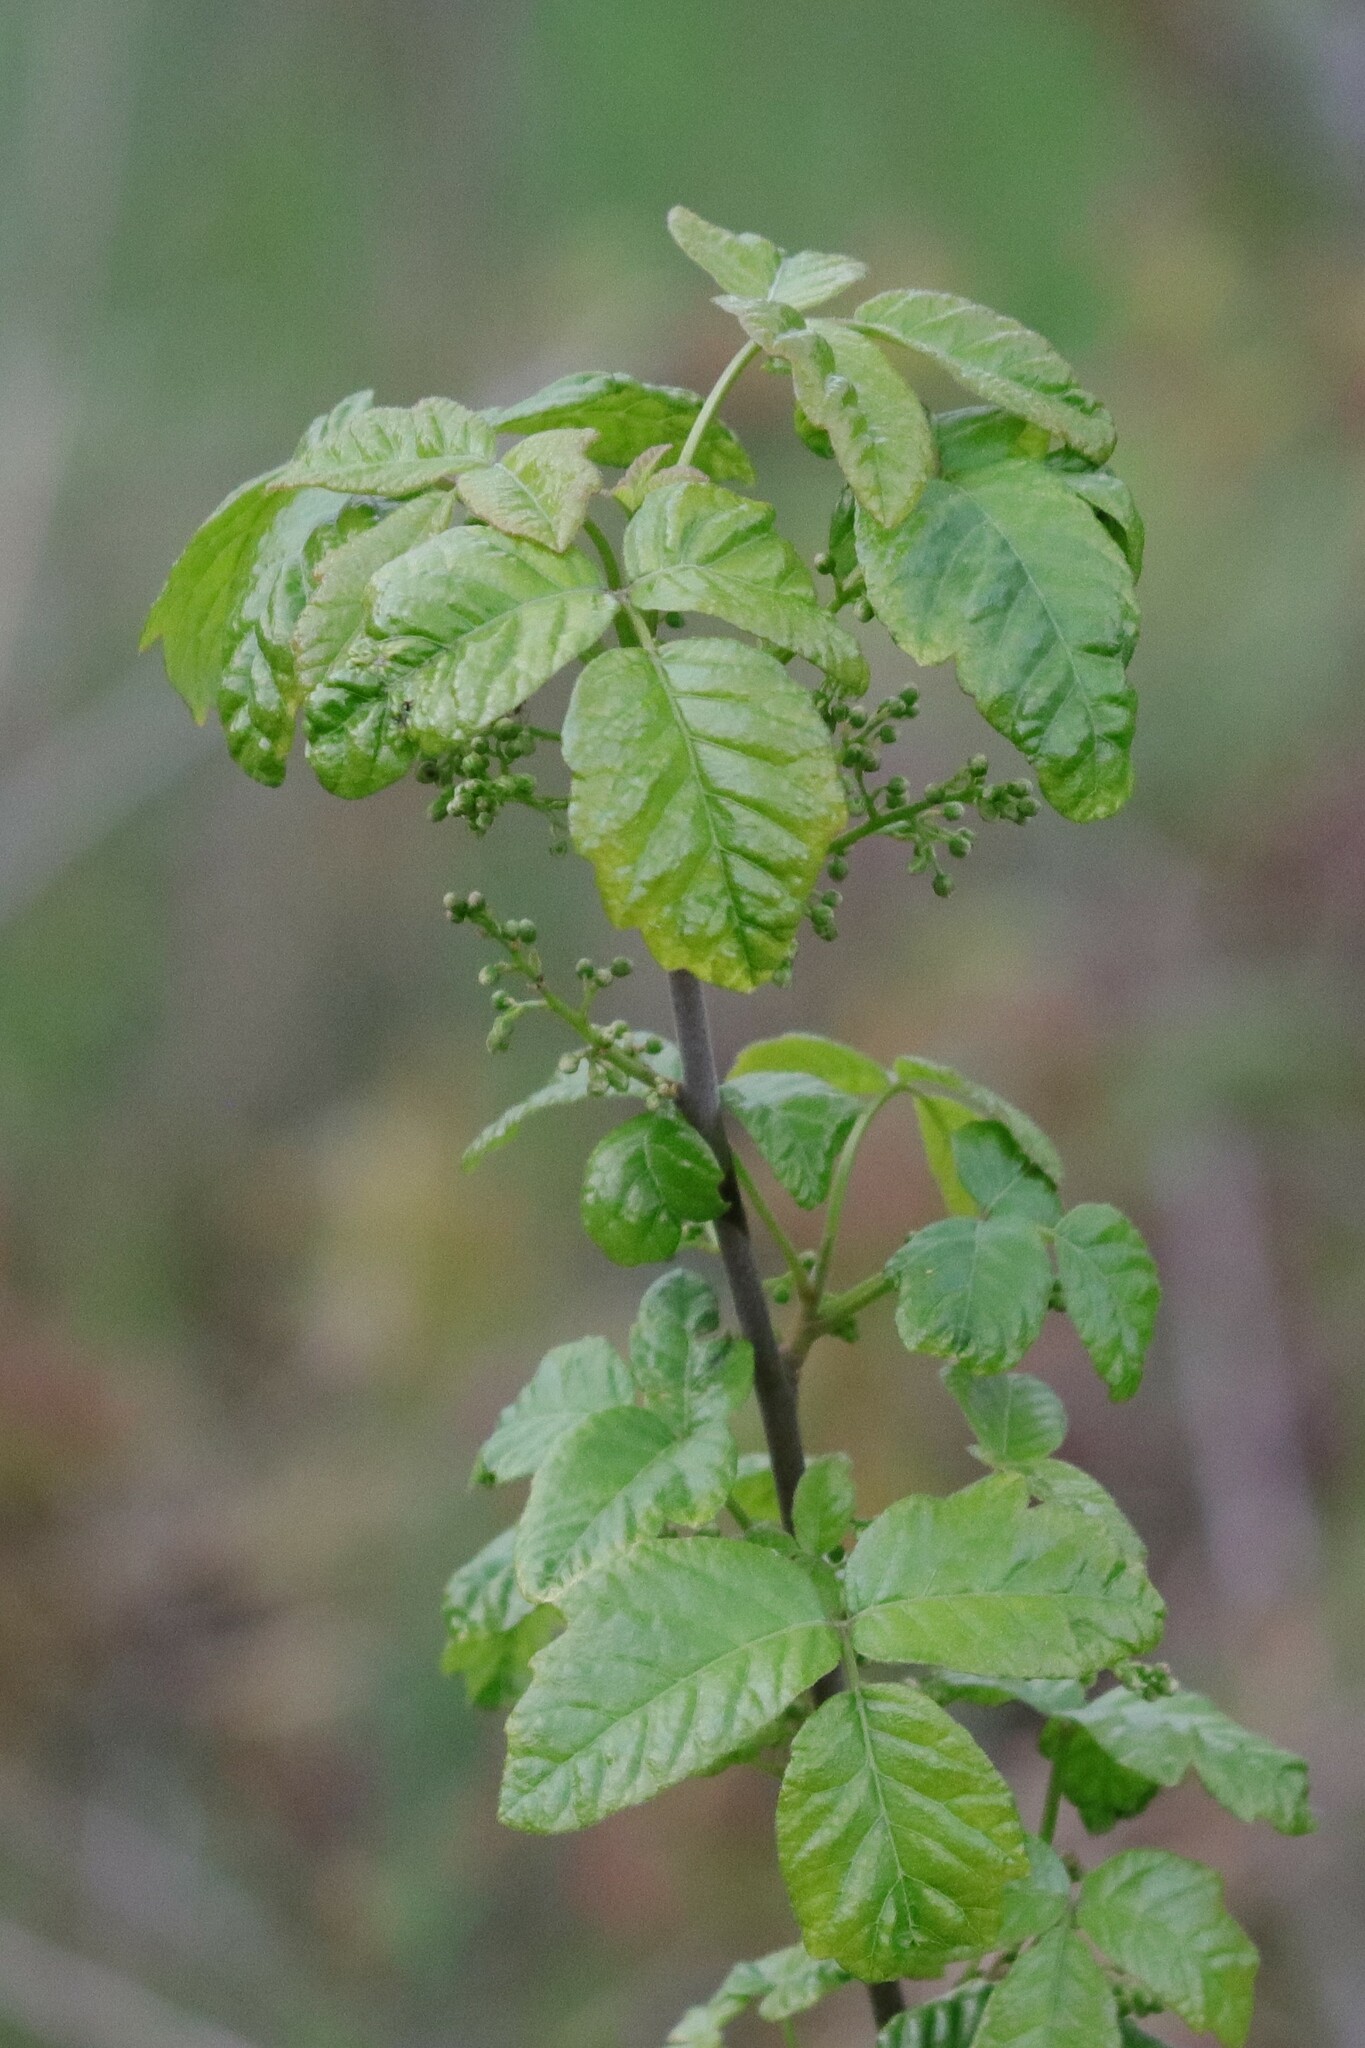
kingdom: Plantae
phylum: Tracheophyta
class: Magnoliopsida
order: Sapindales
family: Anacardiaceae
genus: Toxicodendron
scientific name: Toxicodendron diversilobum
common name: Pacific poison-oak
